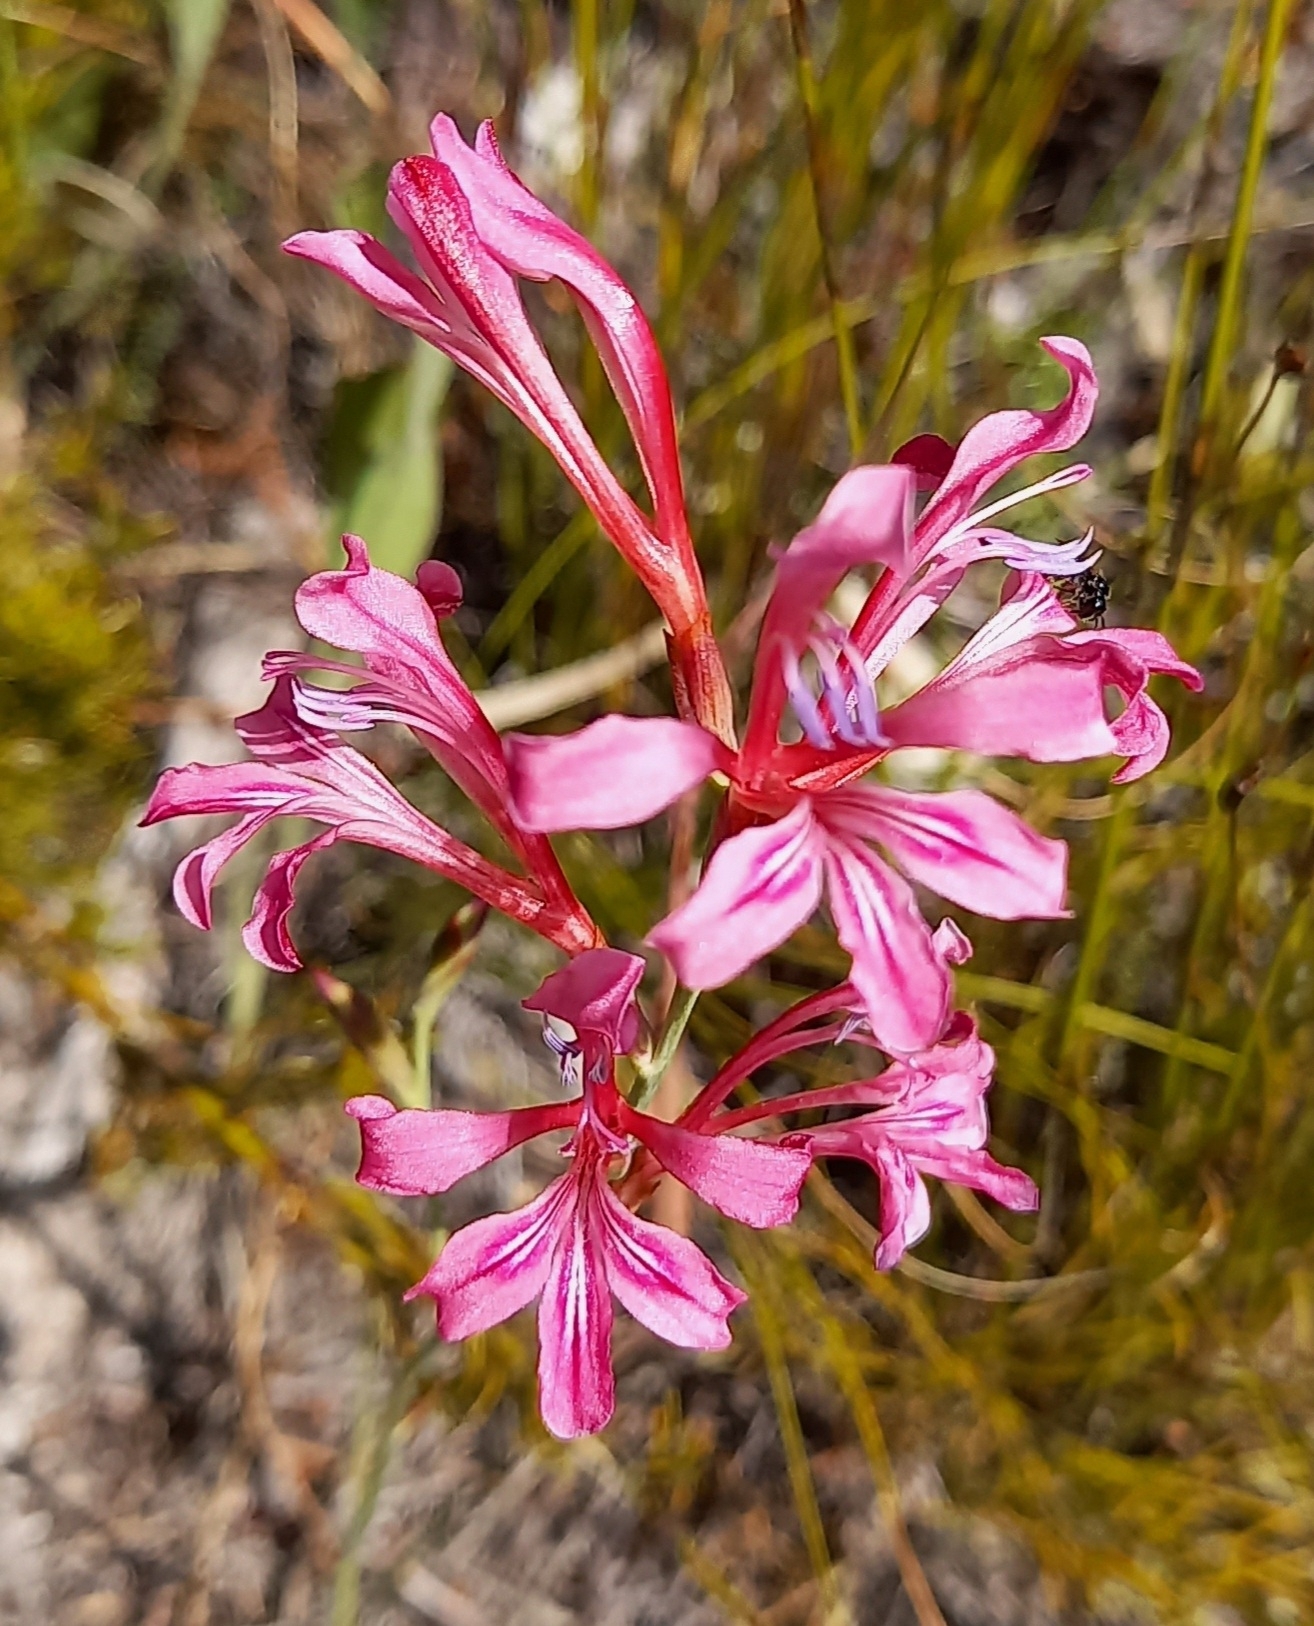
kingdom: Plantae
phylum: Tracheophyta
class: Liliopsida
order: Asparagales
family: Iridaceae
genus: Tritoniopsis
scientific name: Tritoniopsis lata
